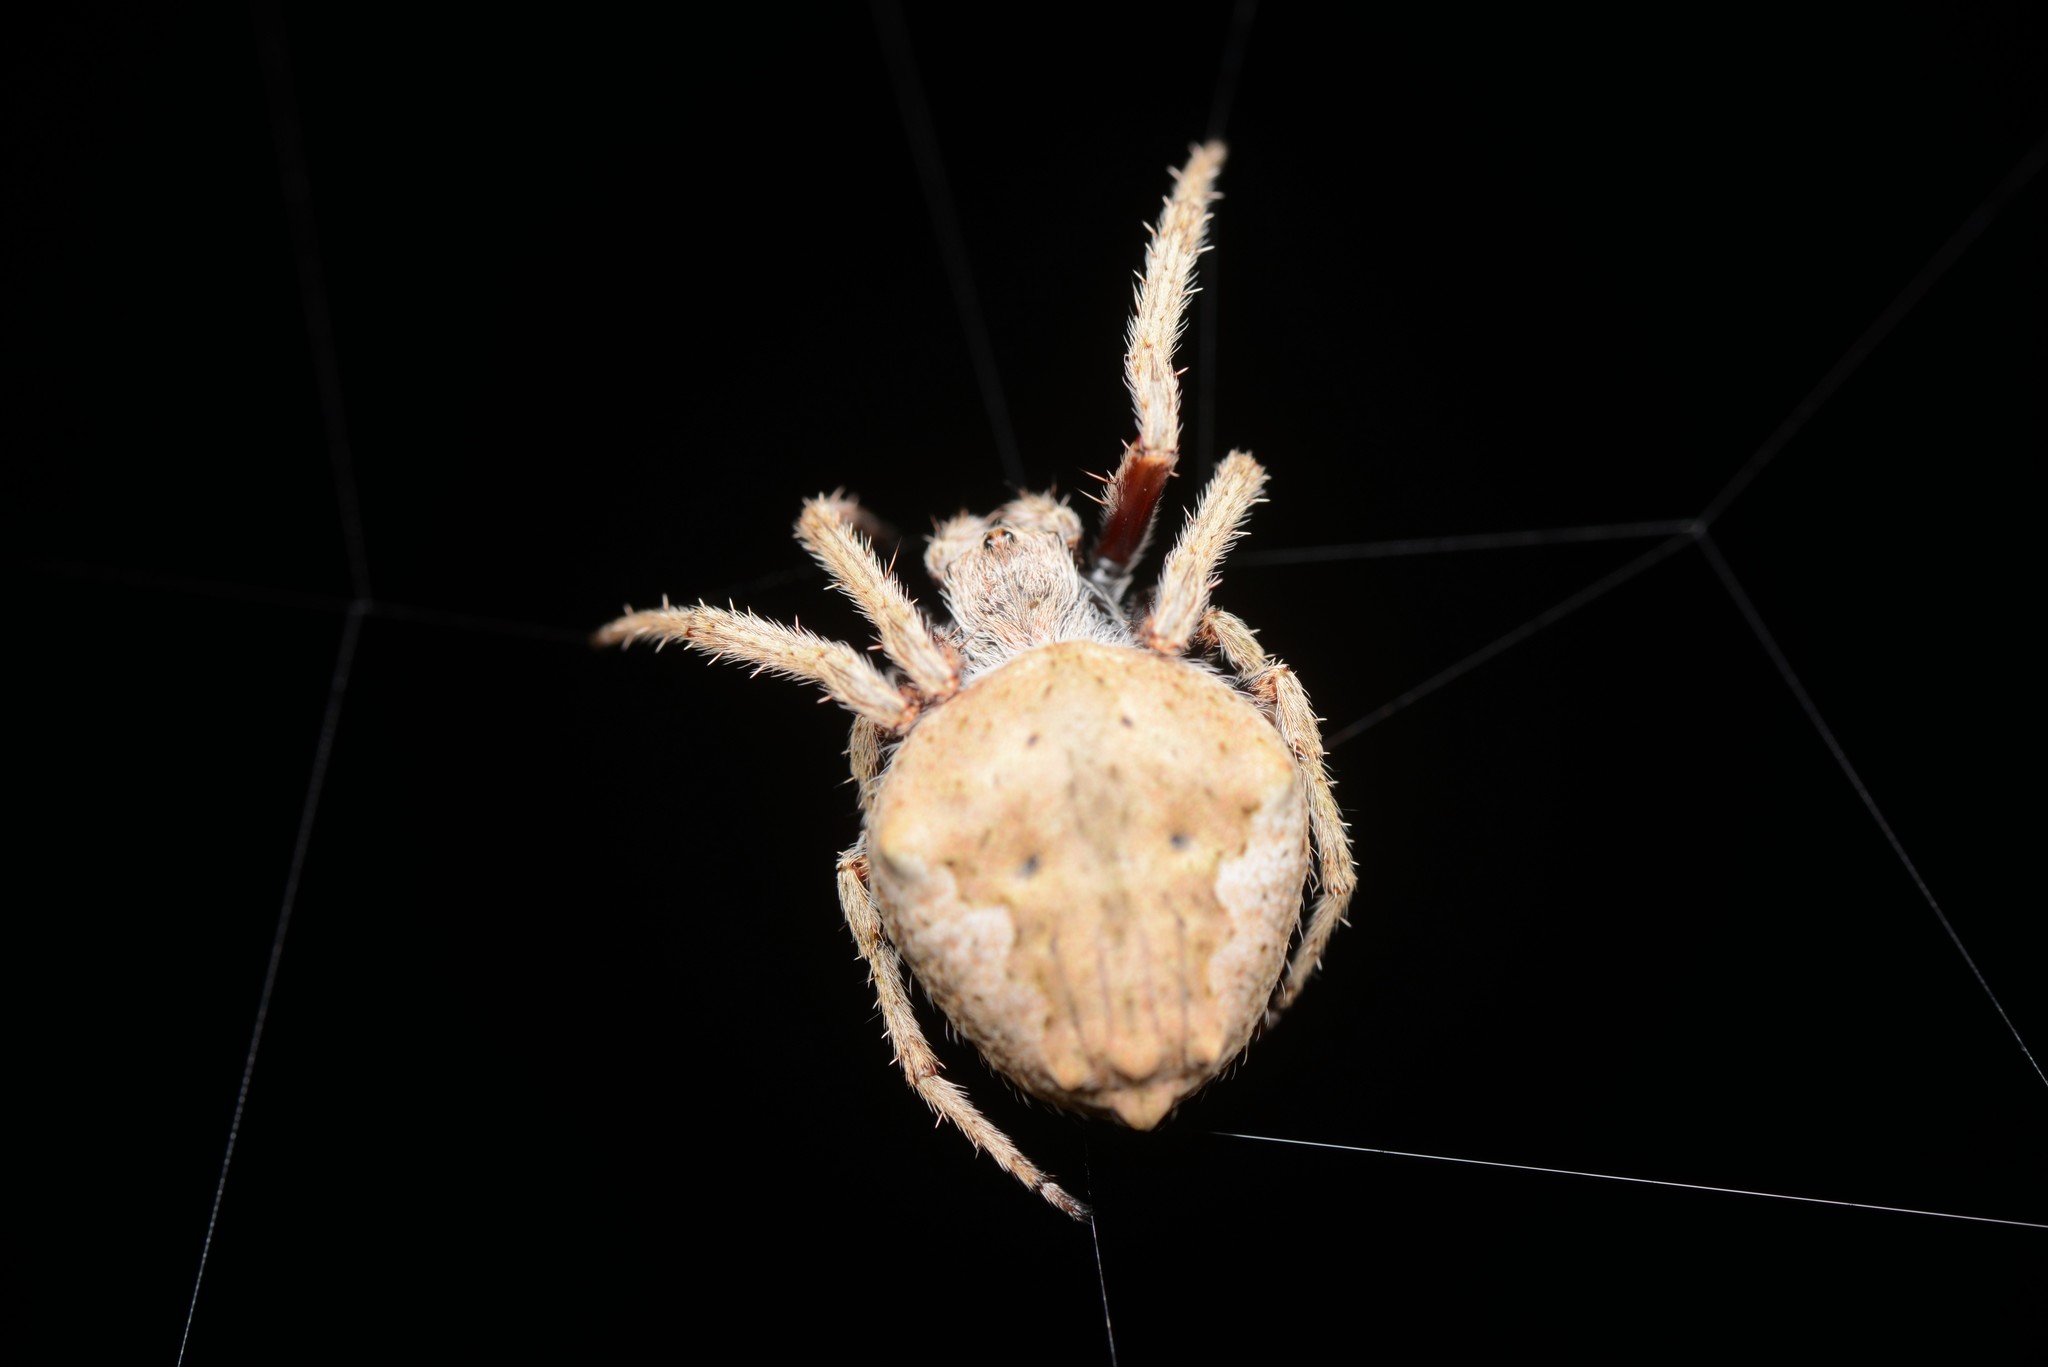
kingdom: Animalia
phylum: Arthropoda
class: Arachnida
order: Araneae
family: Araneidae
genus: Eriophora
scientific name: Eriophora pustulosa
